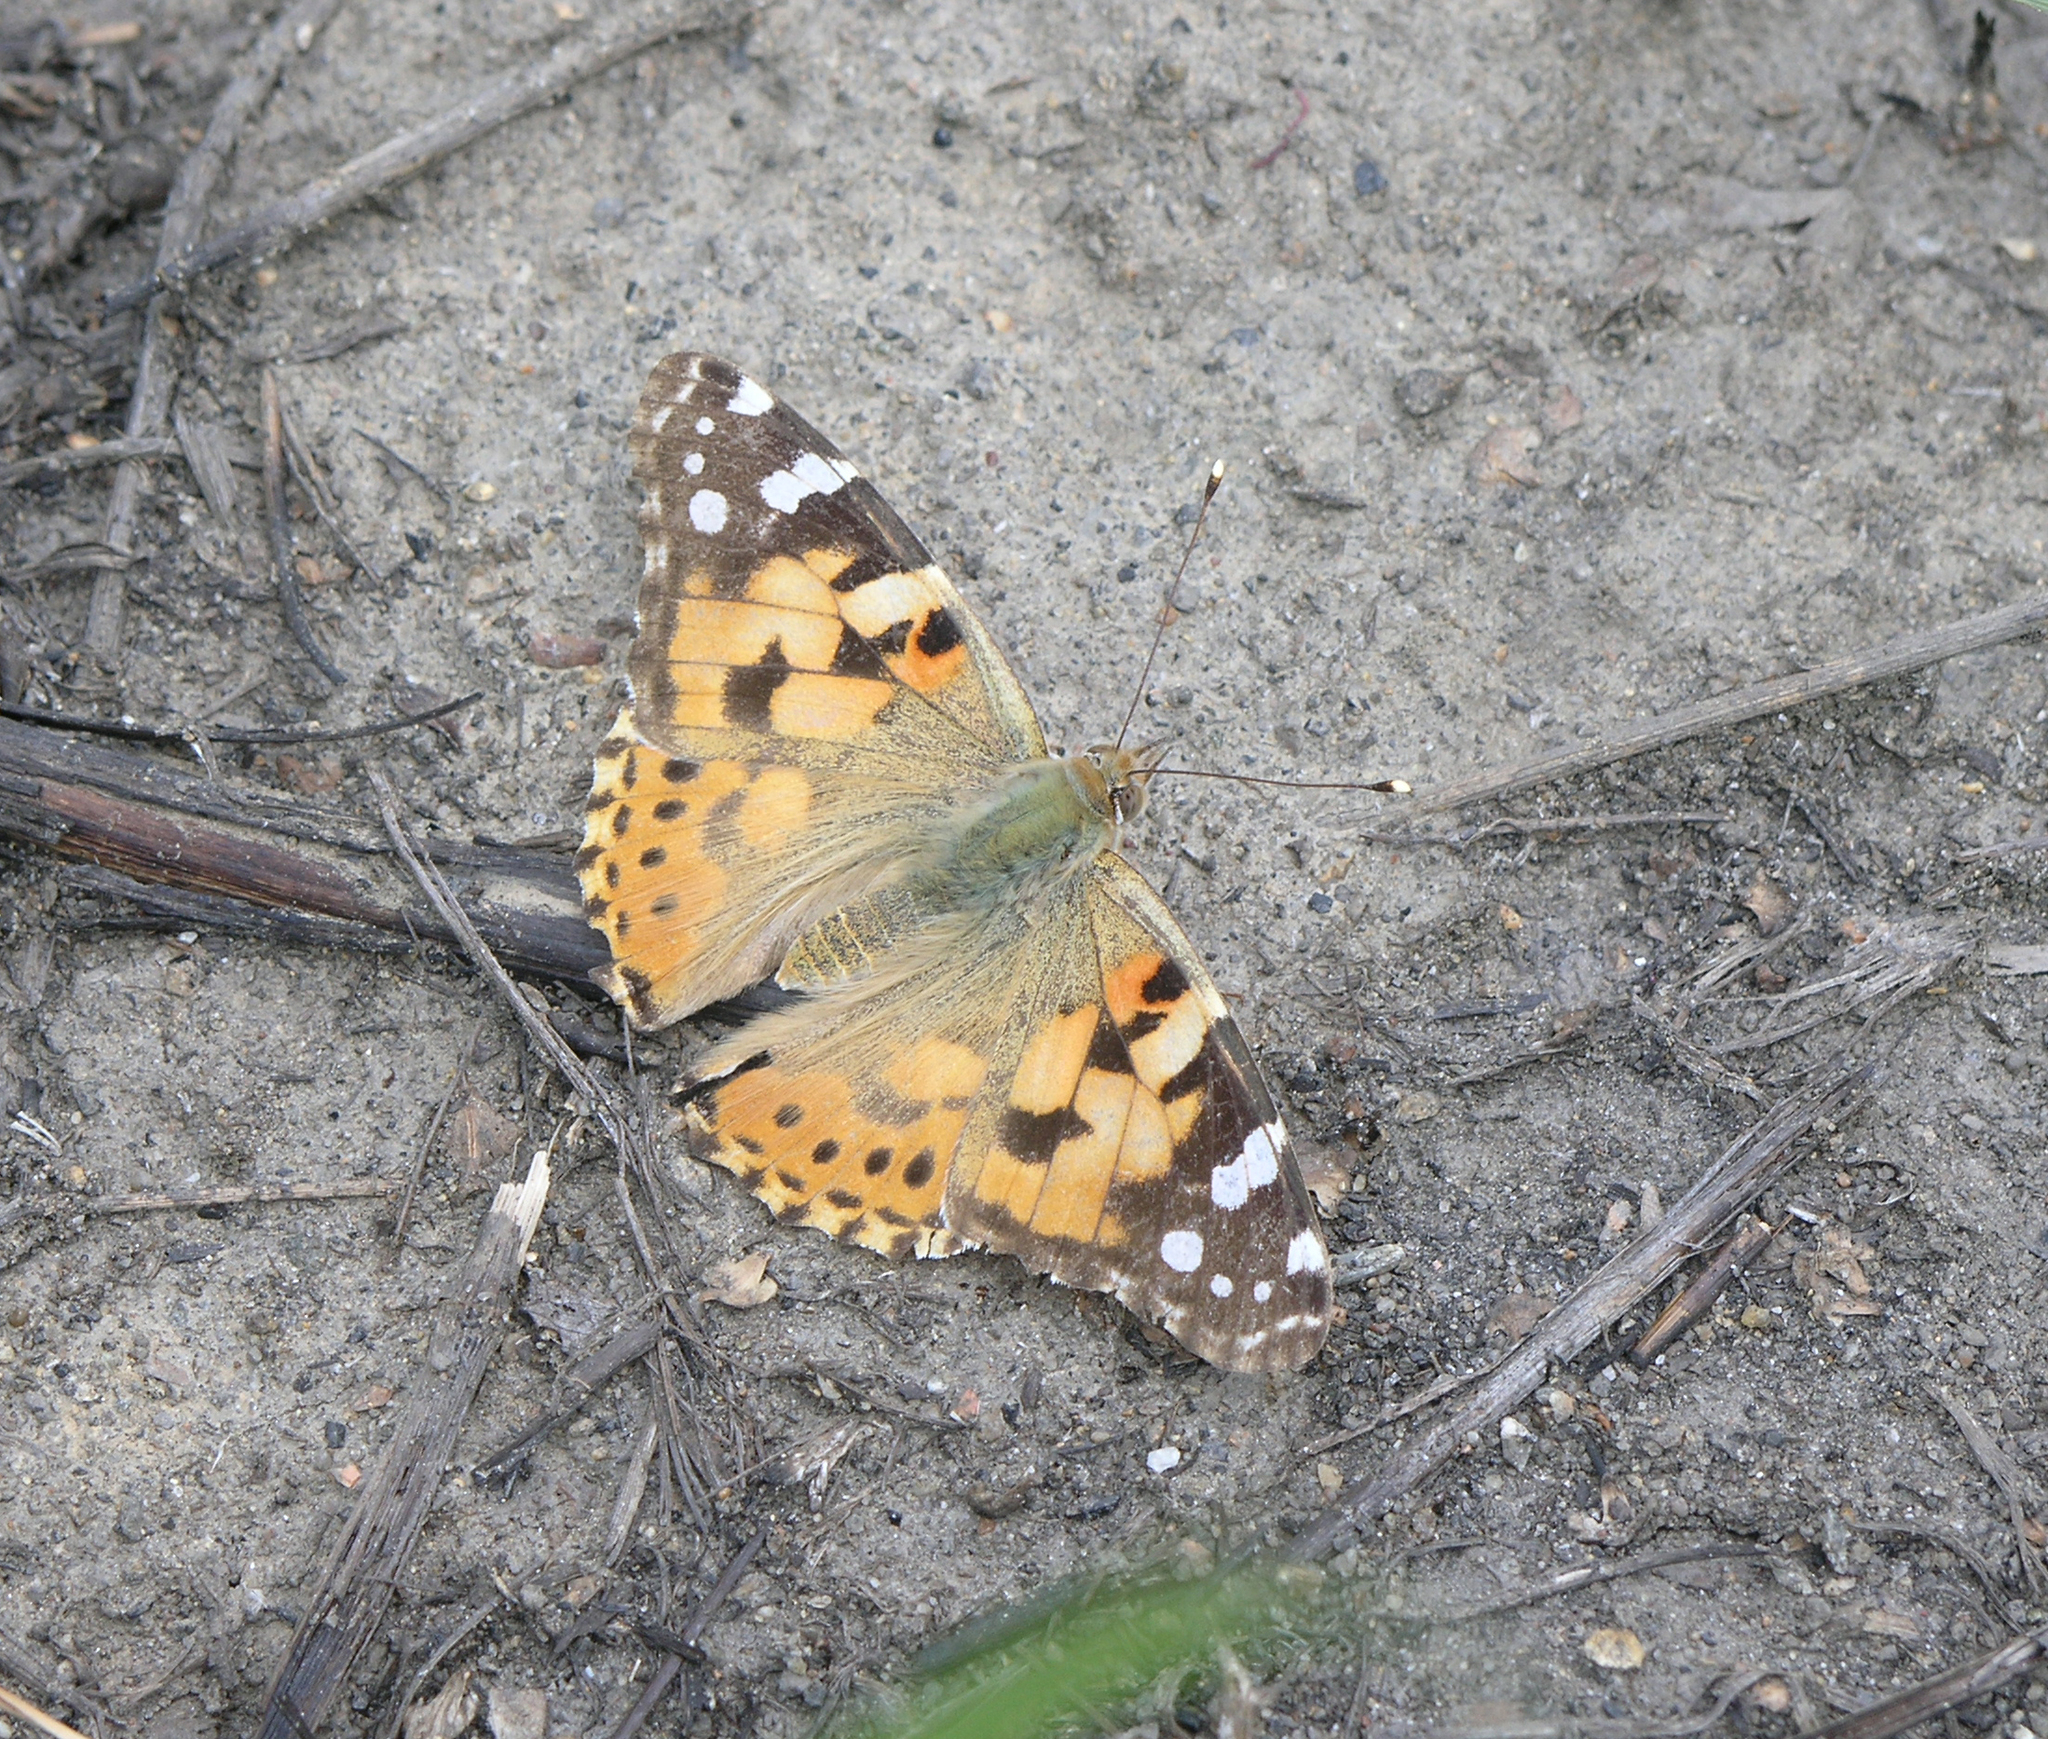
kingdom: Animalia
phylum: Arthropoda
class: Insecta
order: Lepidoptera
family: Nymphalidae
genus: Vanessa
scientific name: Vanessa cardui
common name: Painted lady
